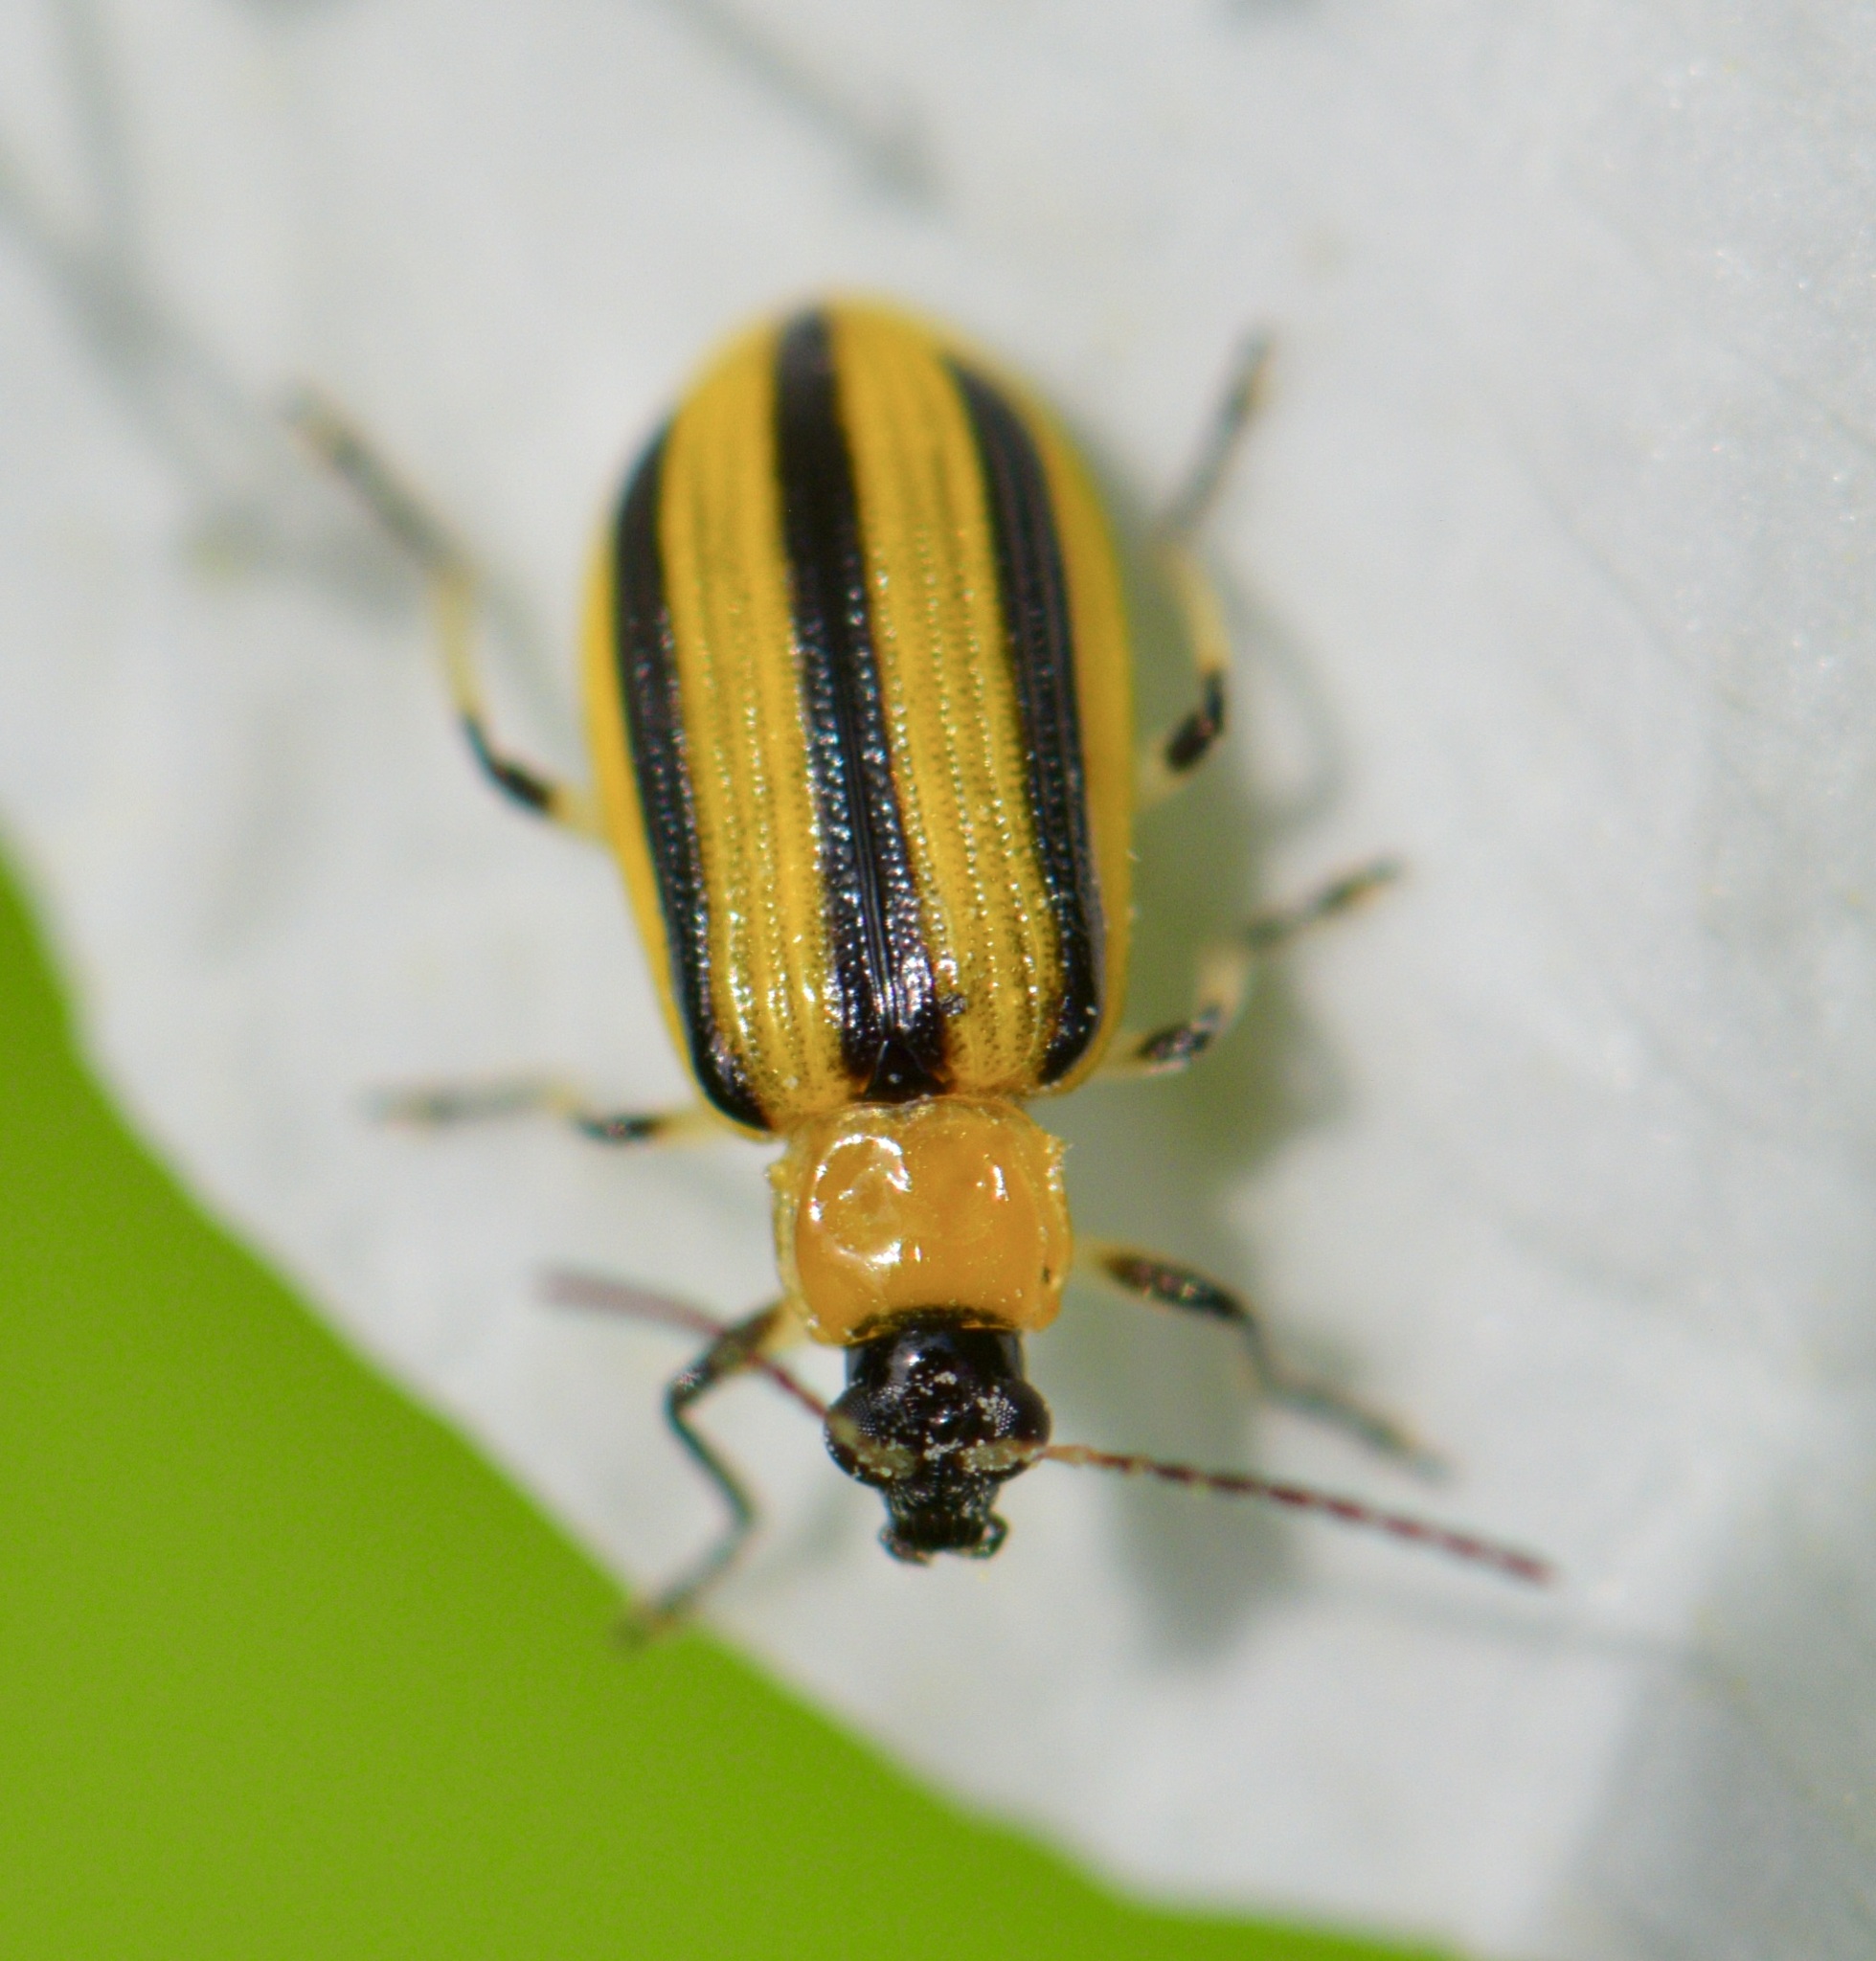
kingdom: Animalia
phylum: Arthropoda
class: Insecta
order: Coleoptera
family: Chrysomelidae
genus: Acalymma
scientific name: Acalymma vittatum
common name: Striped cucumber beetle
